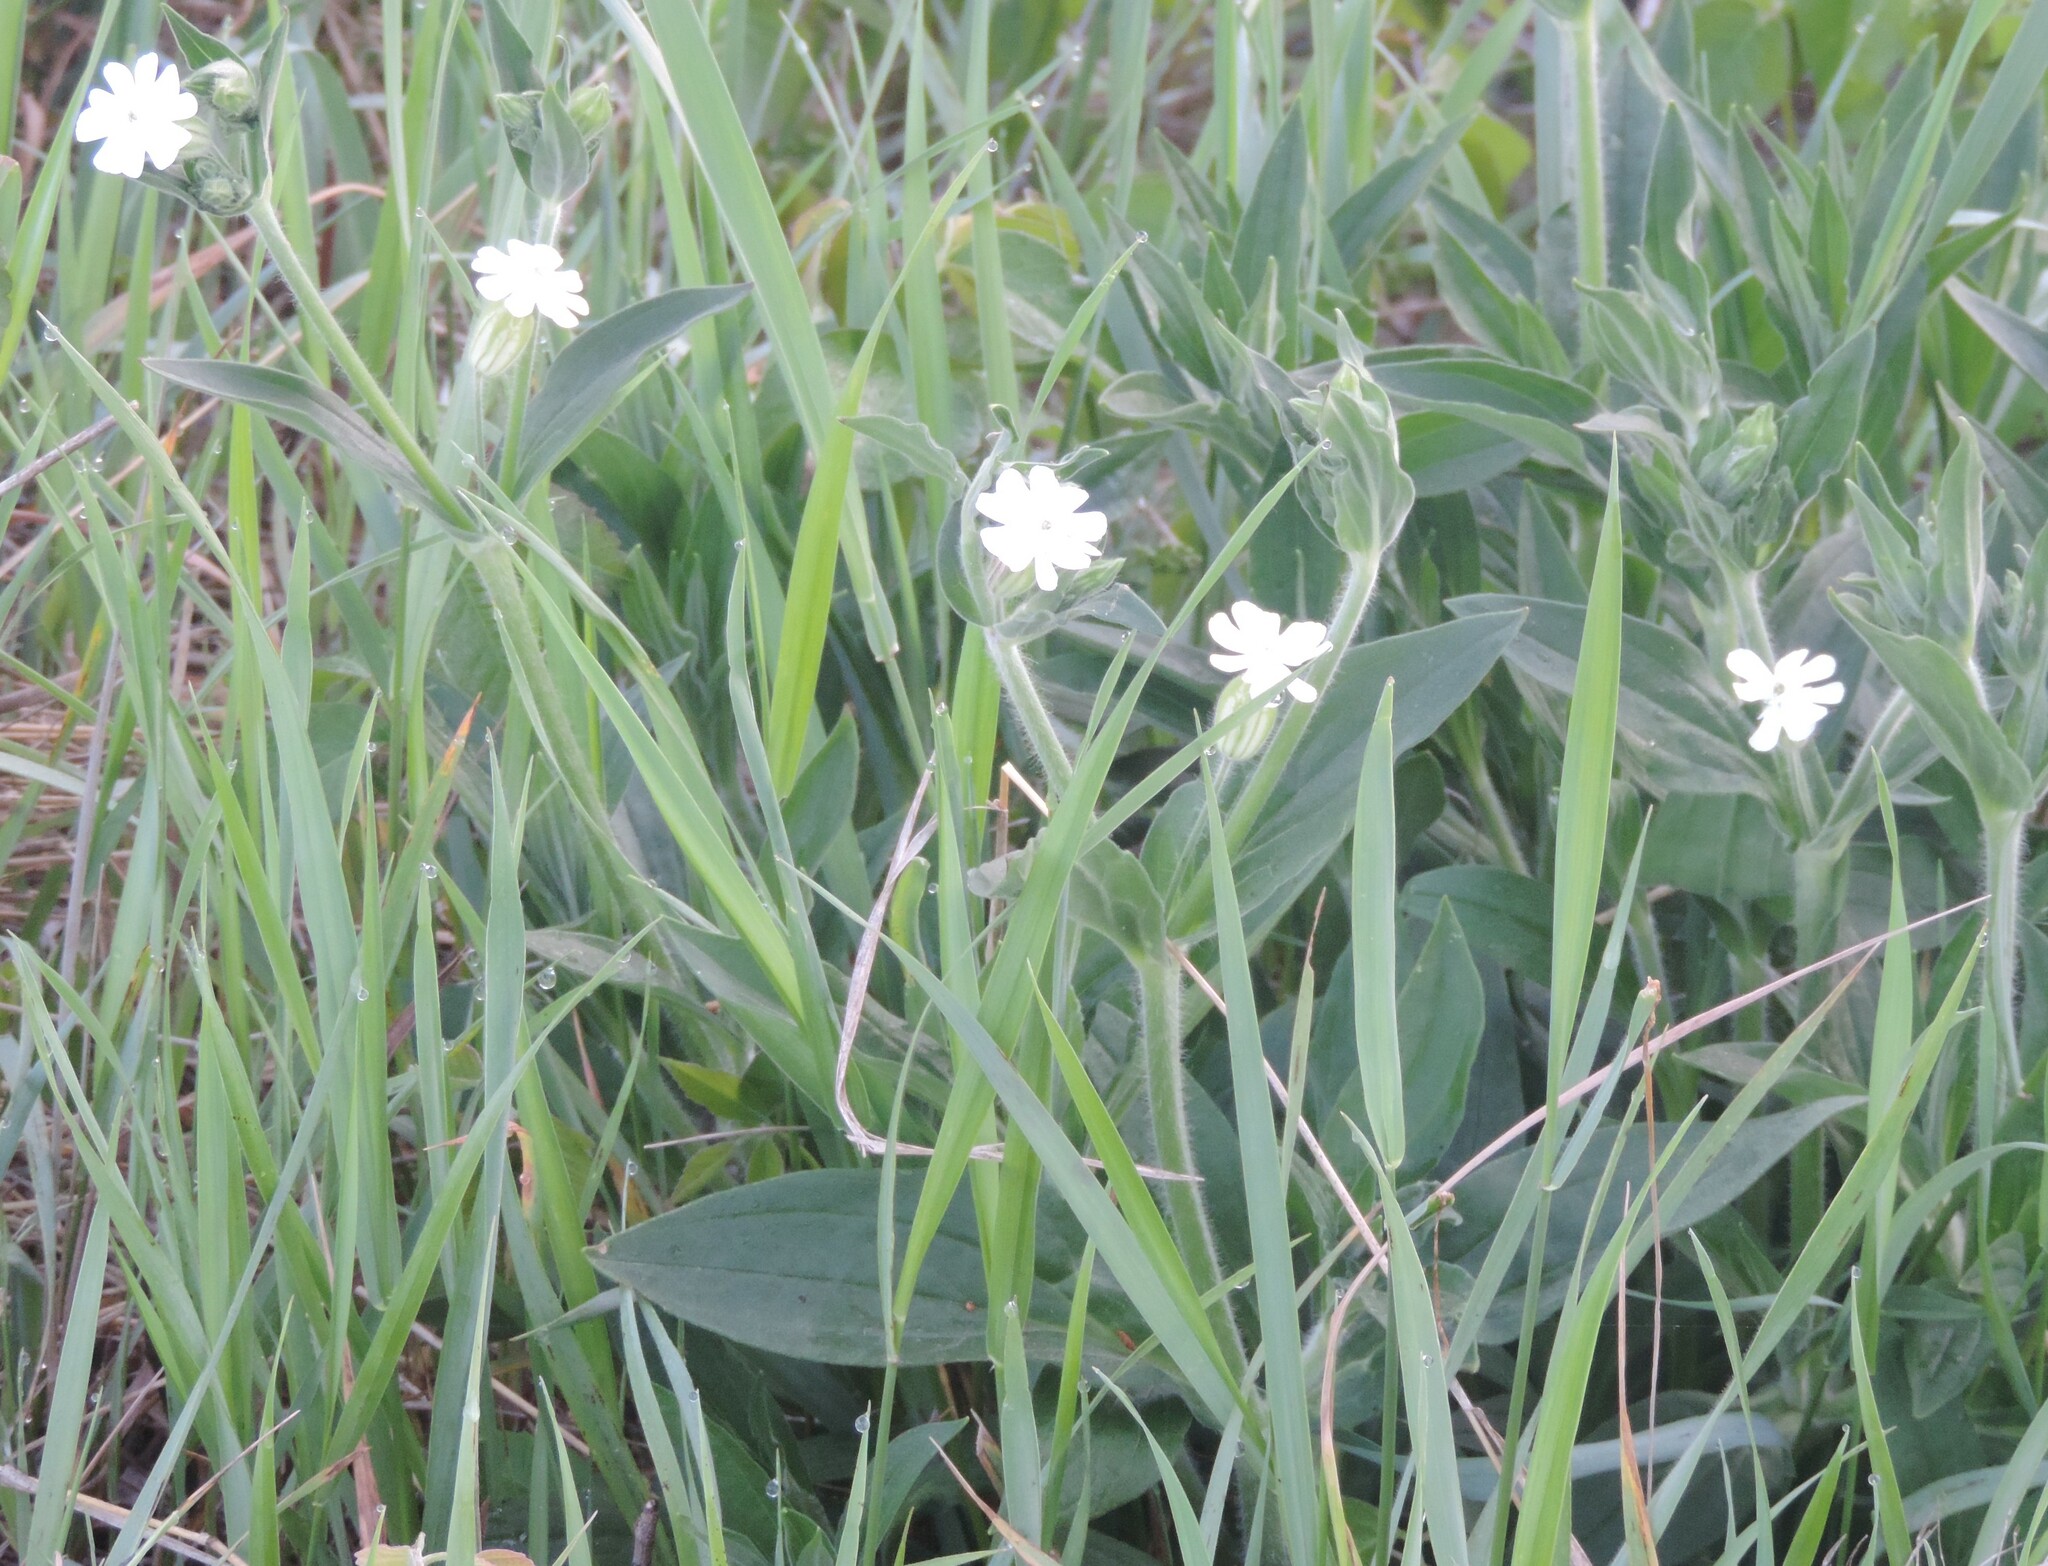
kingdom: Plantae
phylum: Tracheophyta
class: Magnoliopsida
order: Caryophyllales
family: Caryophyllaceae
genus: Silene
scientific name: Silene latifolia
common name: White campion
